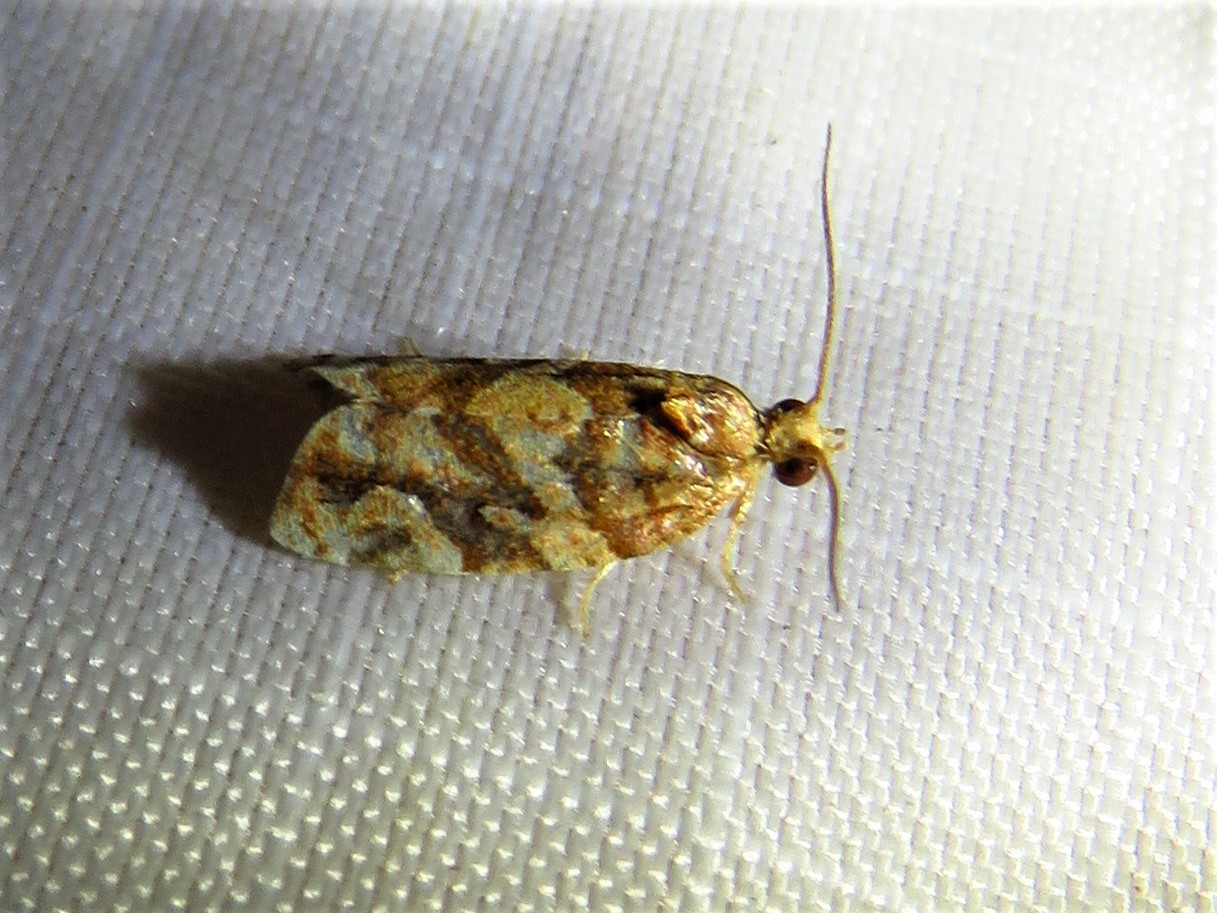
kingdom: Animalia
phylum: Arthropoda
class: Insecta
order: Lepidoptera
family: Tortricidae
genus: Argyrotaenia
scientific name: Argyrotaenia hodgesi
